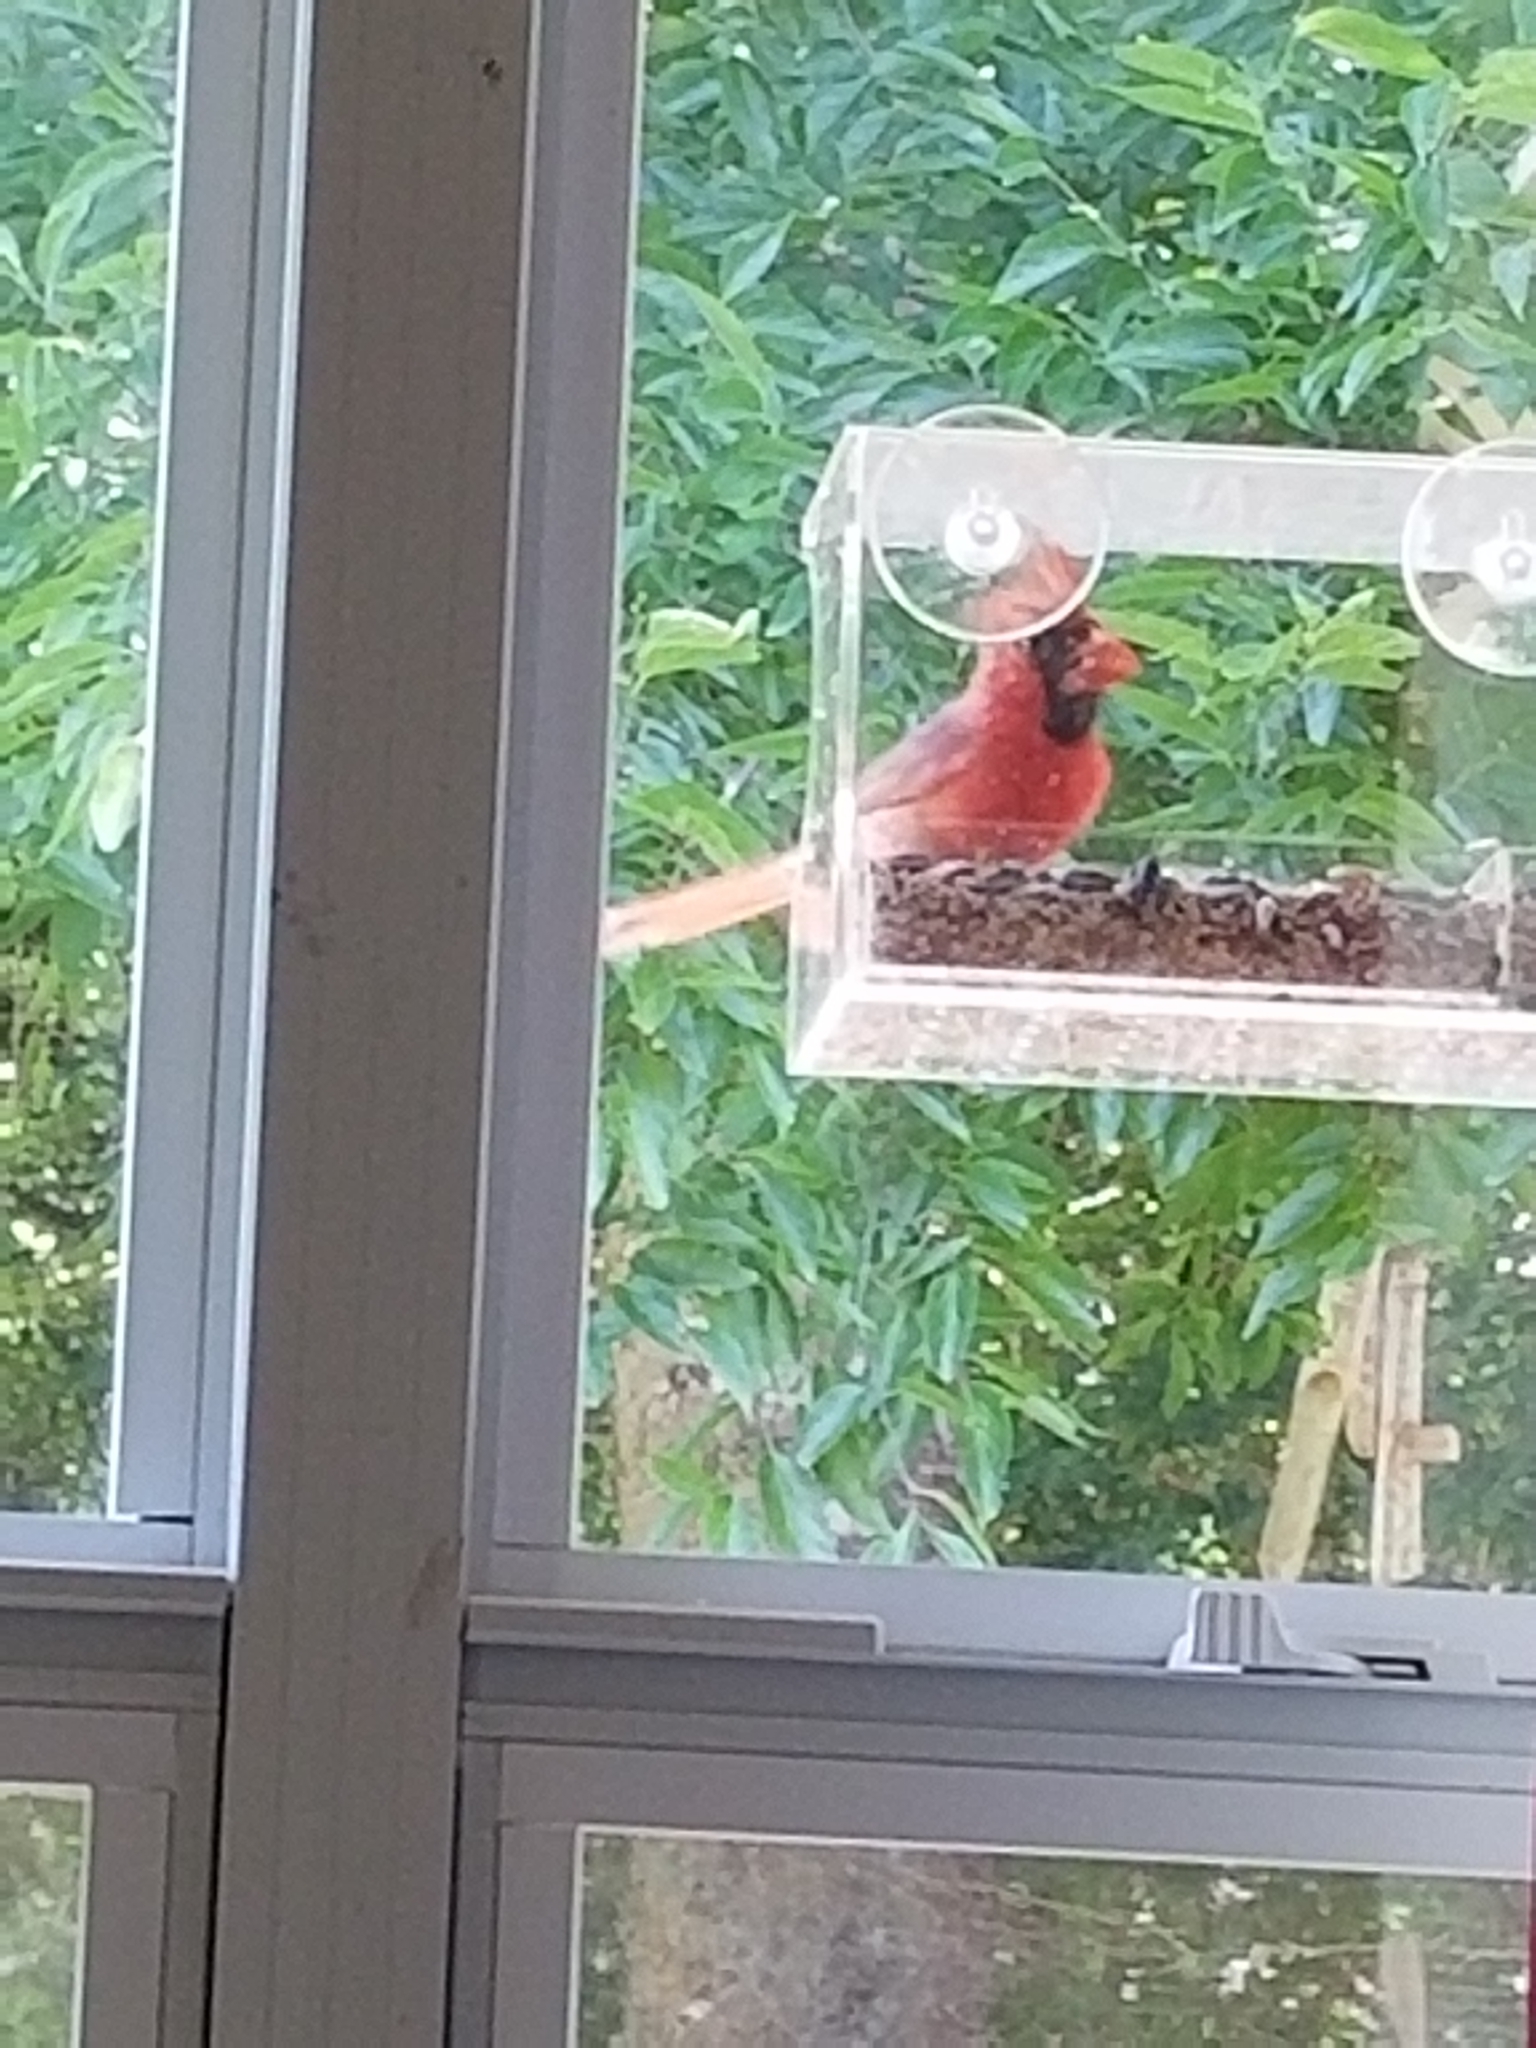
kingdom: Animalia
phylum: Chordata
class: Aves
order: Passeriformes
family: Cardinalidae
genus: Cardinalis
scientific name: Cardinalis cardinalis
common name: Northern cardinal
